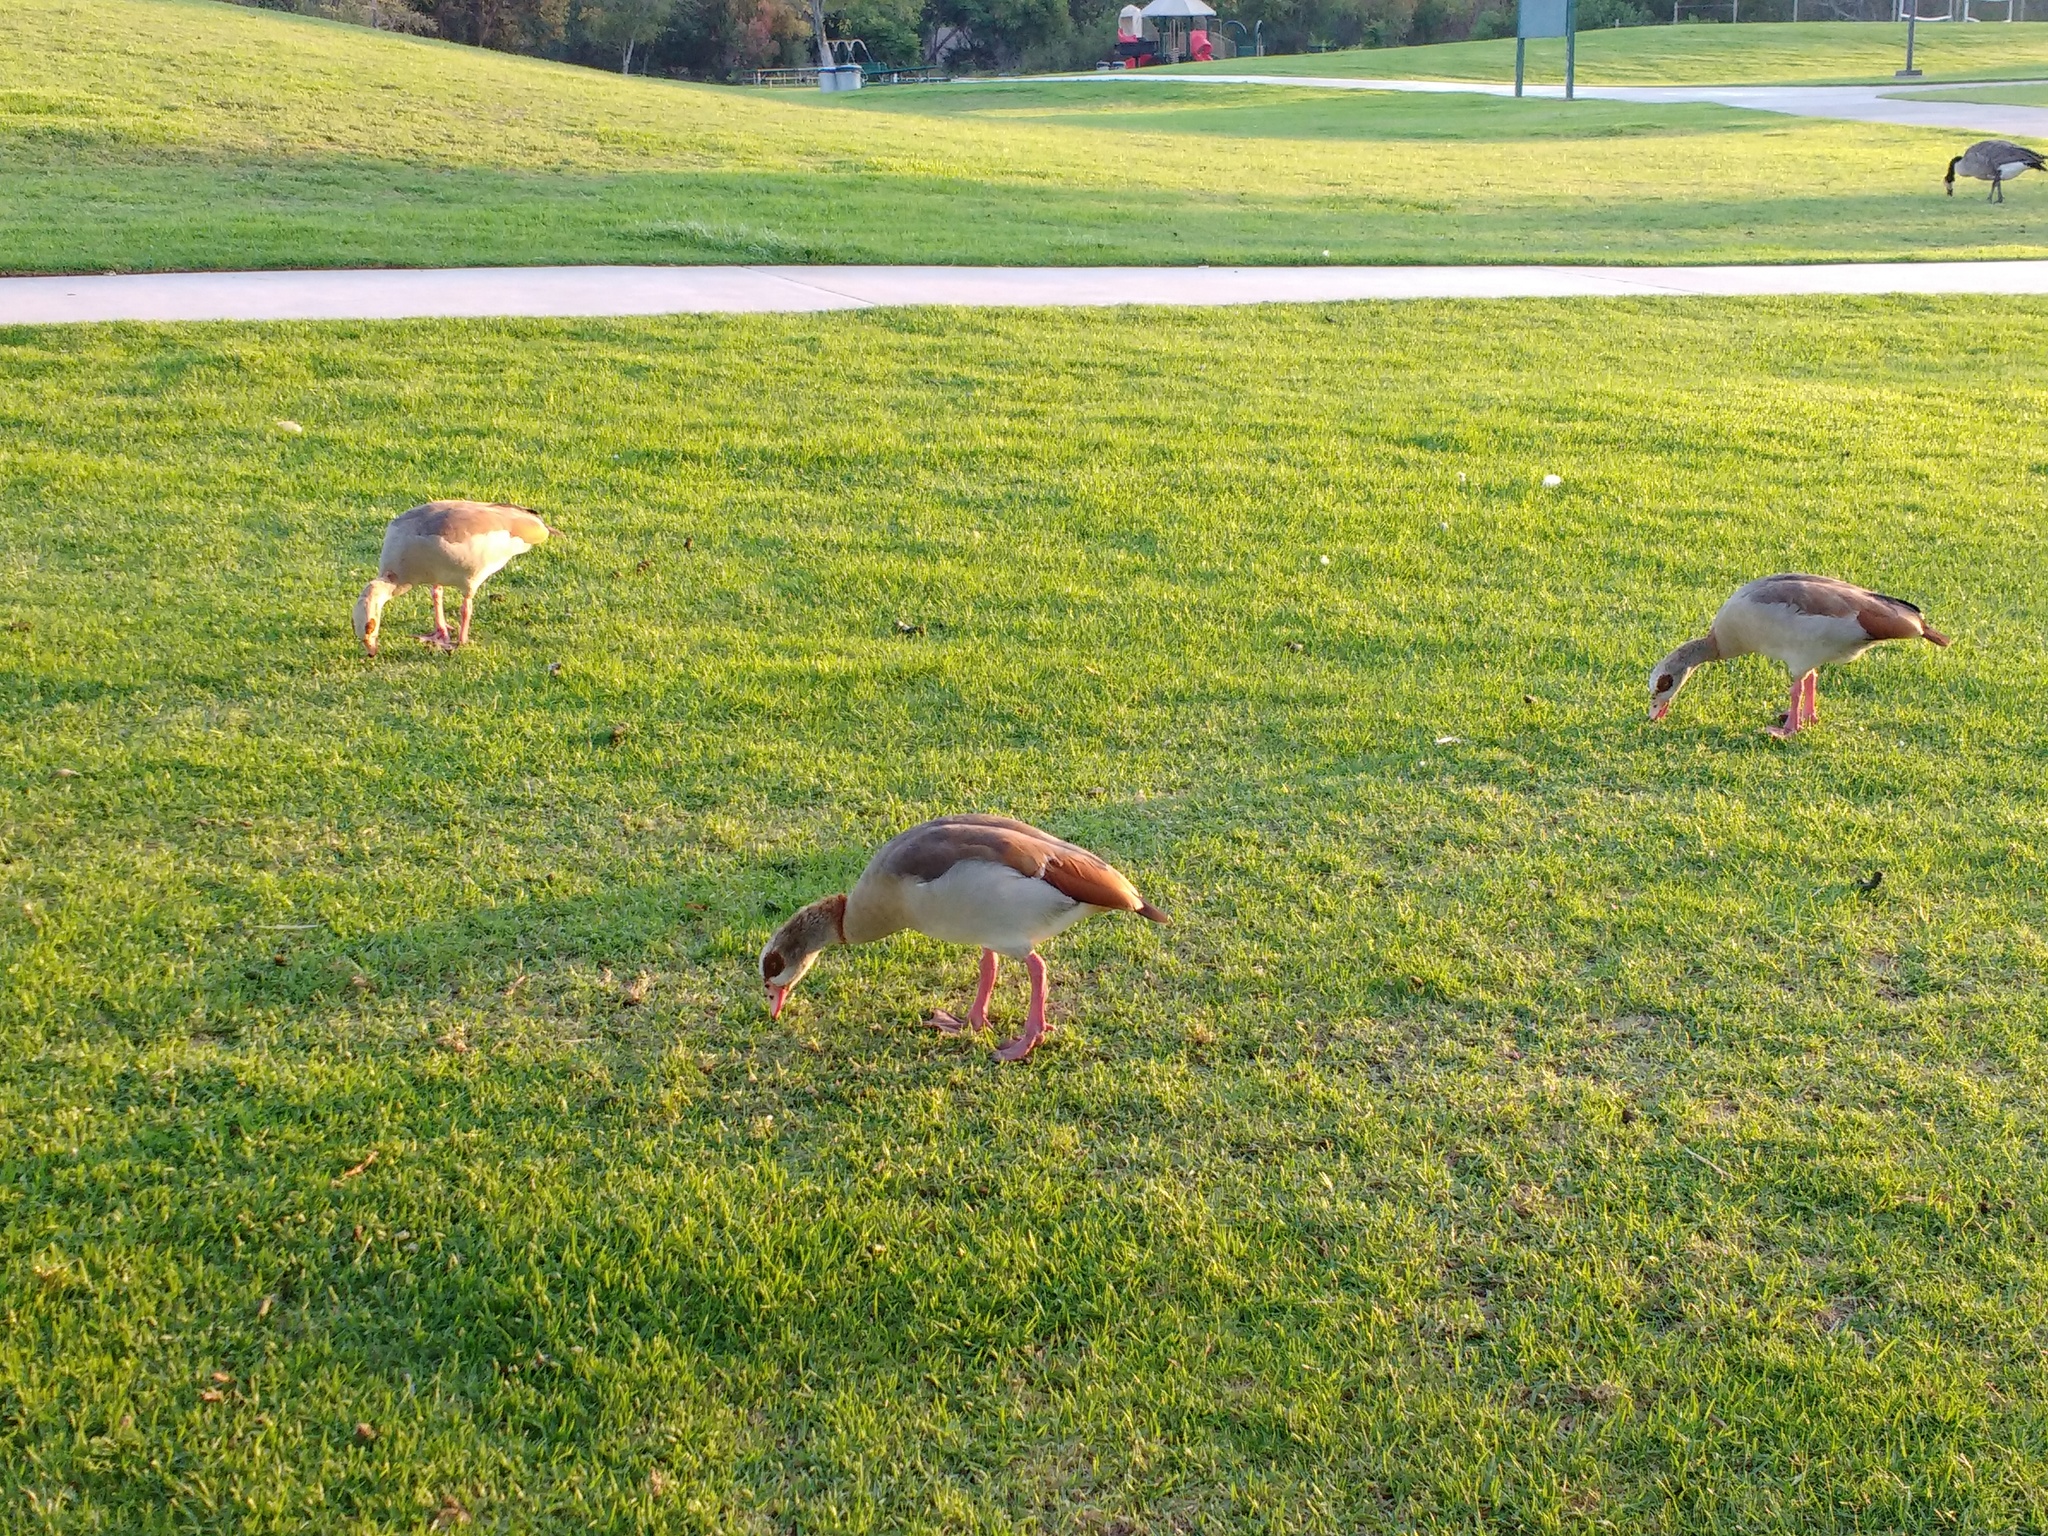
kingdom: Animalia
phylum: Chordata
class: Aves
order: Anseriformes
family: Anatidae
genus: Alopochen
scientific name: Alopochen aegyptiaca
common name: Egyptian goose
